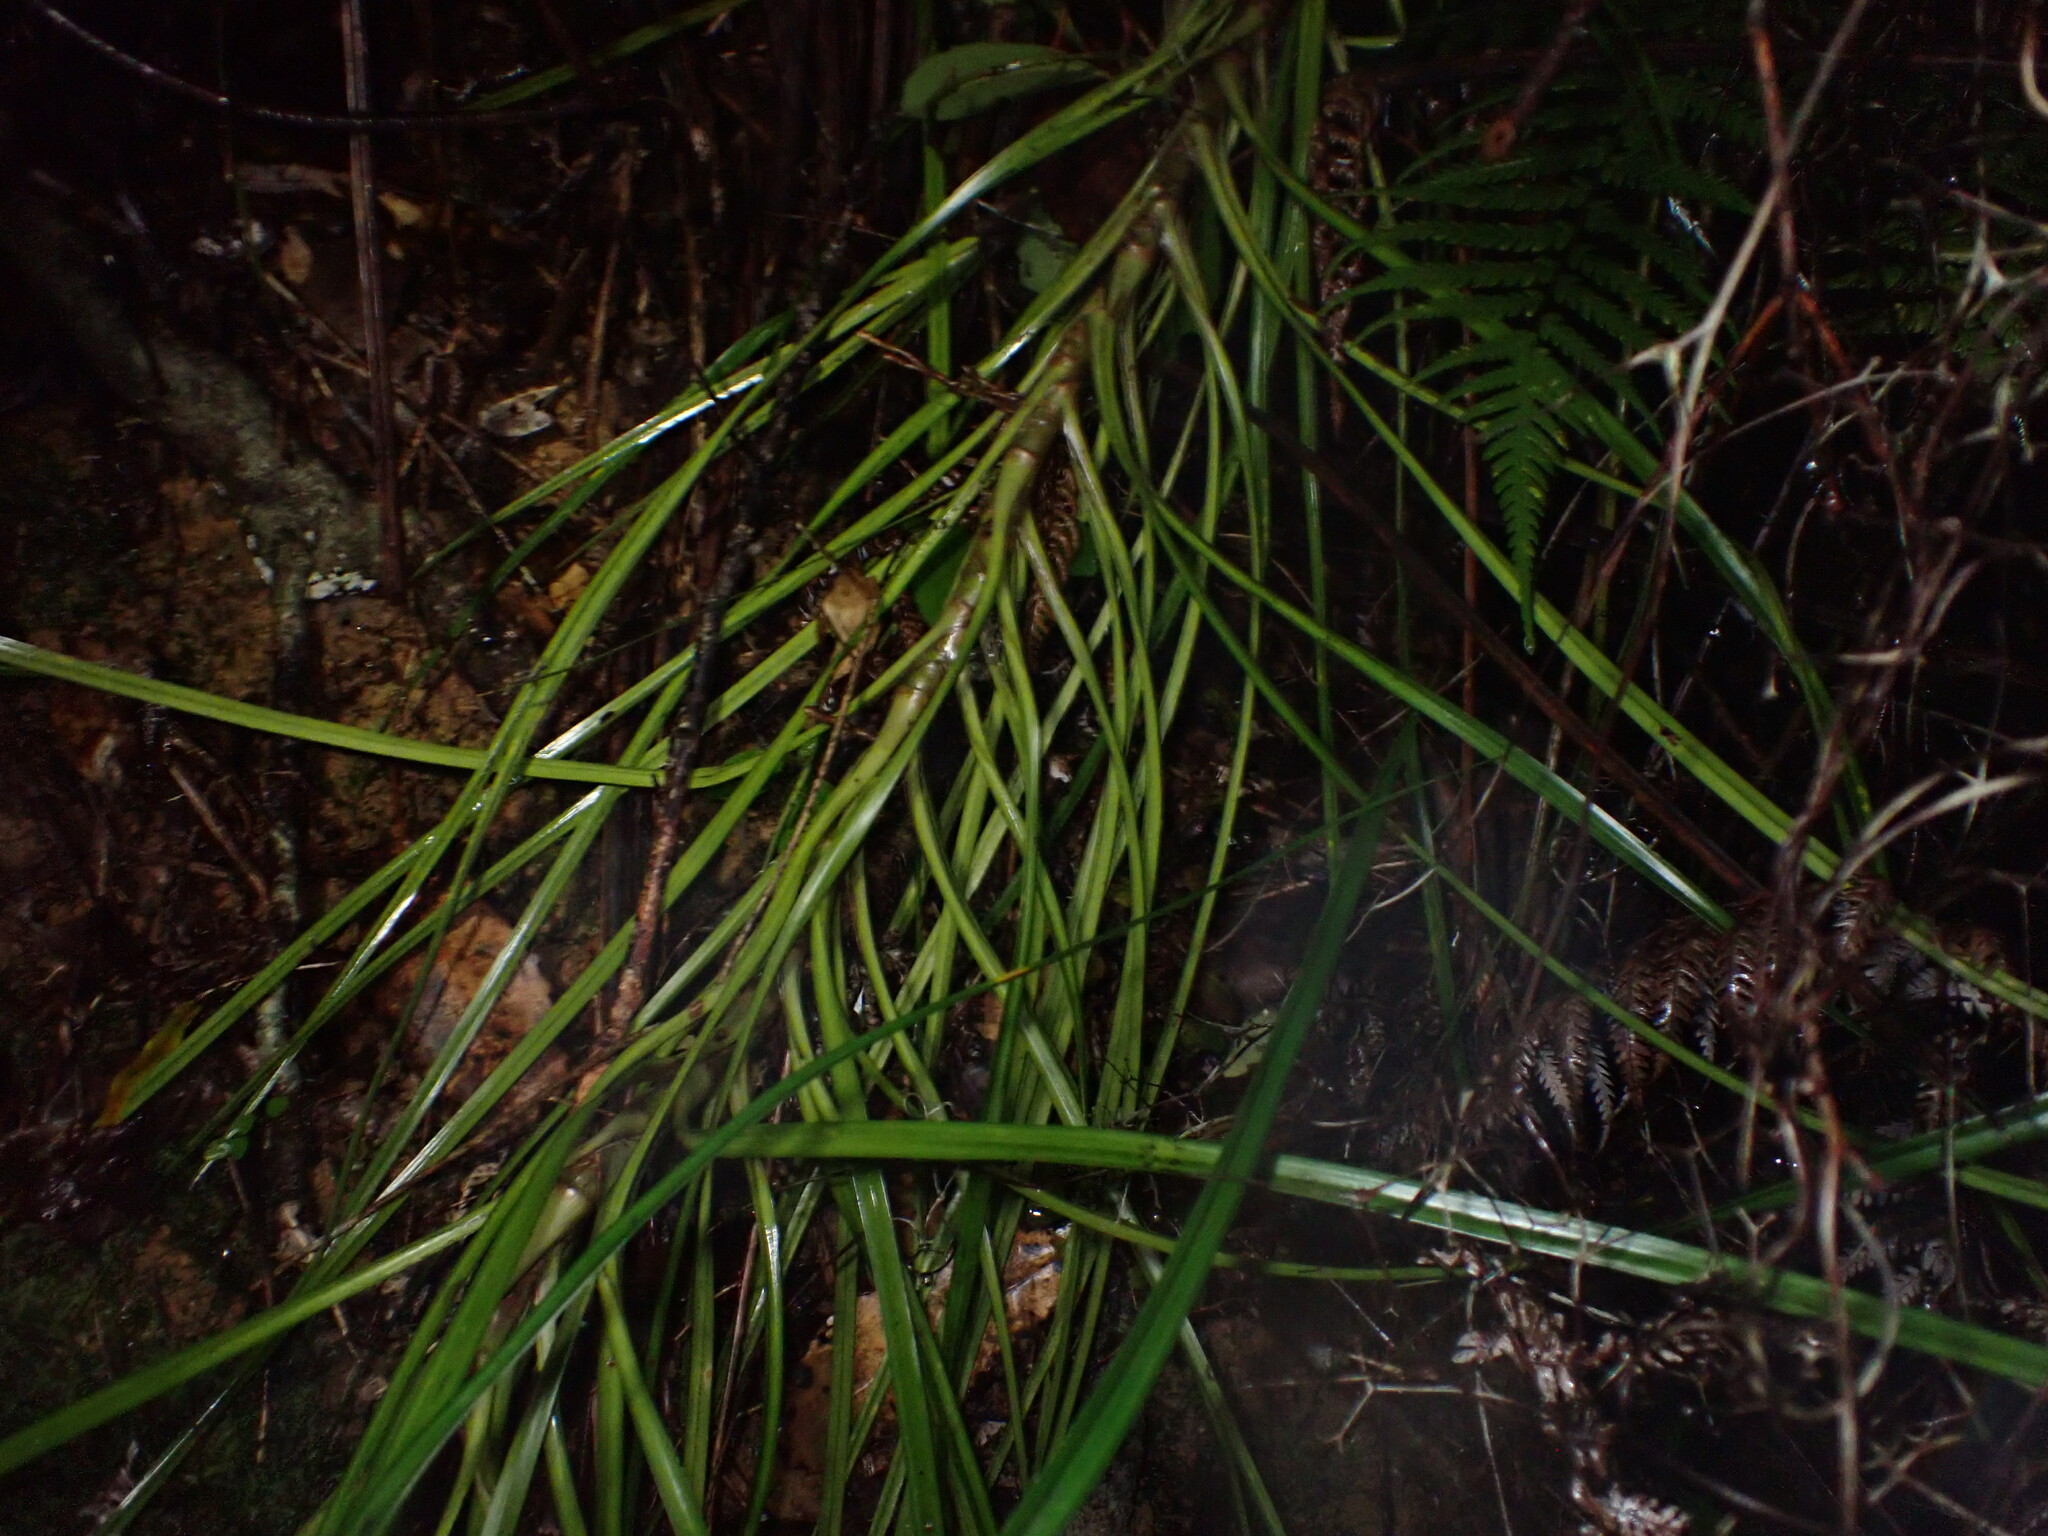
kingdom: Plantae
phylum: Tracheophyta
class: Liliopsida
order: Pandanales
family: Pandanaceae
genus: Freycinetia
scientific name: Freycinetia banksii
